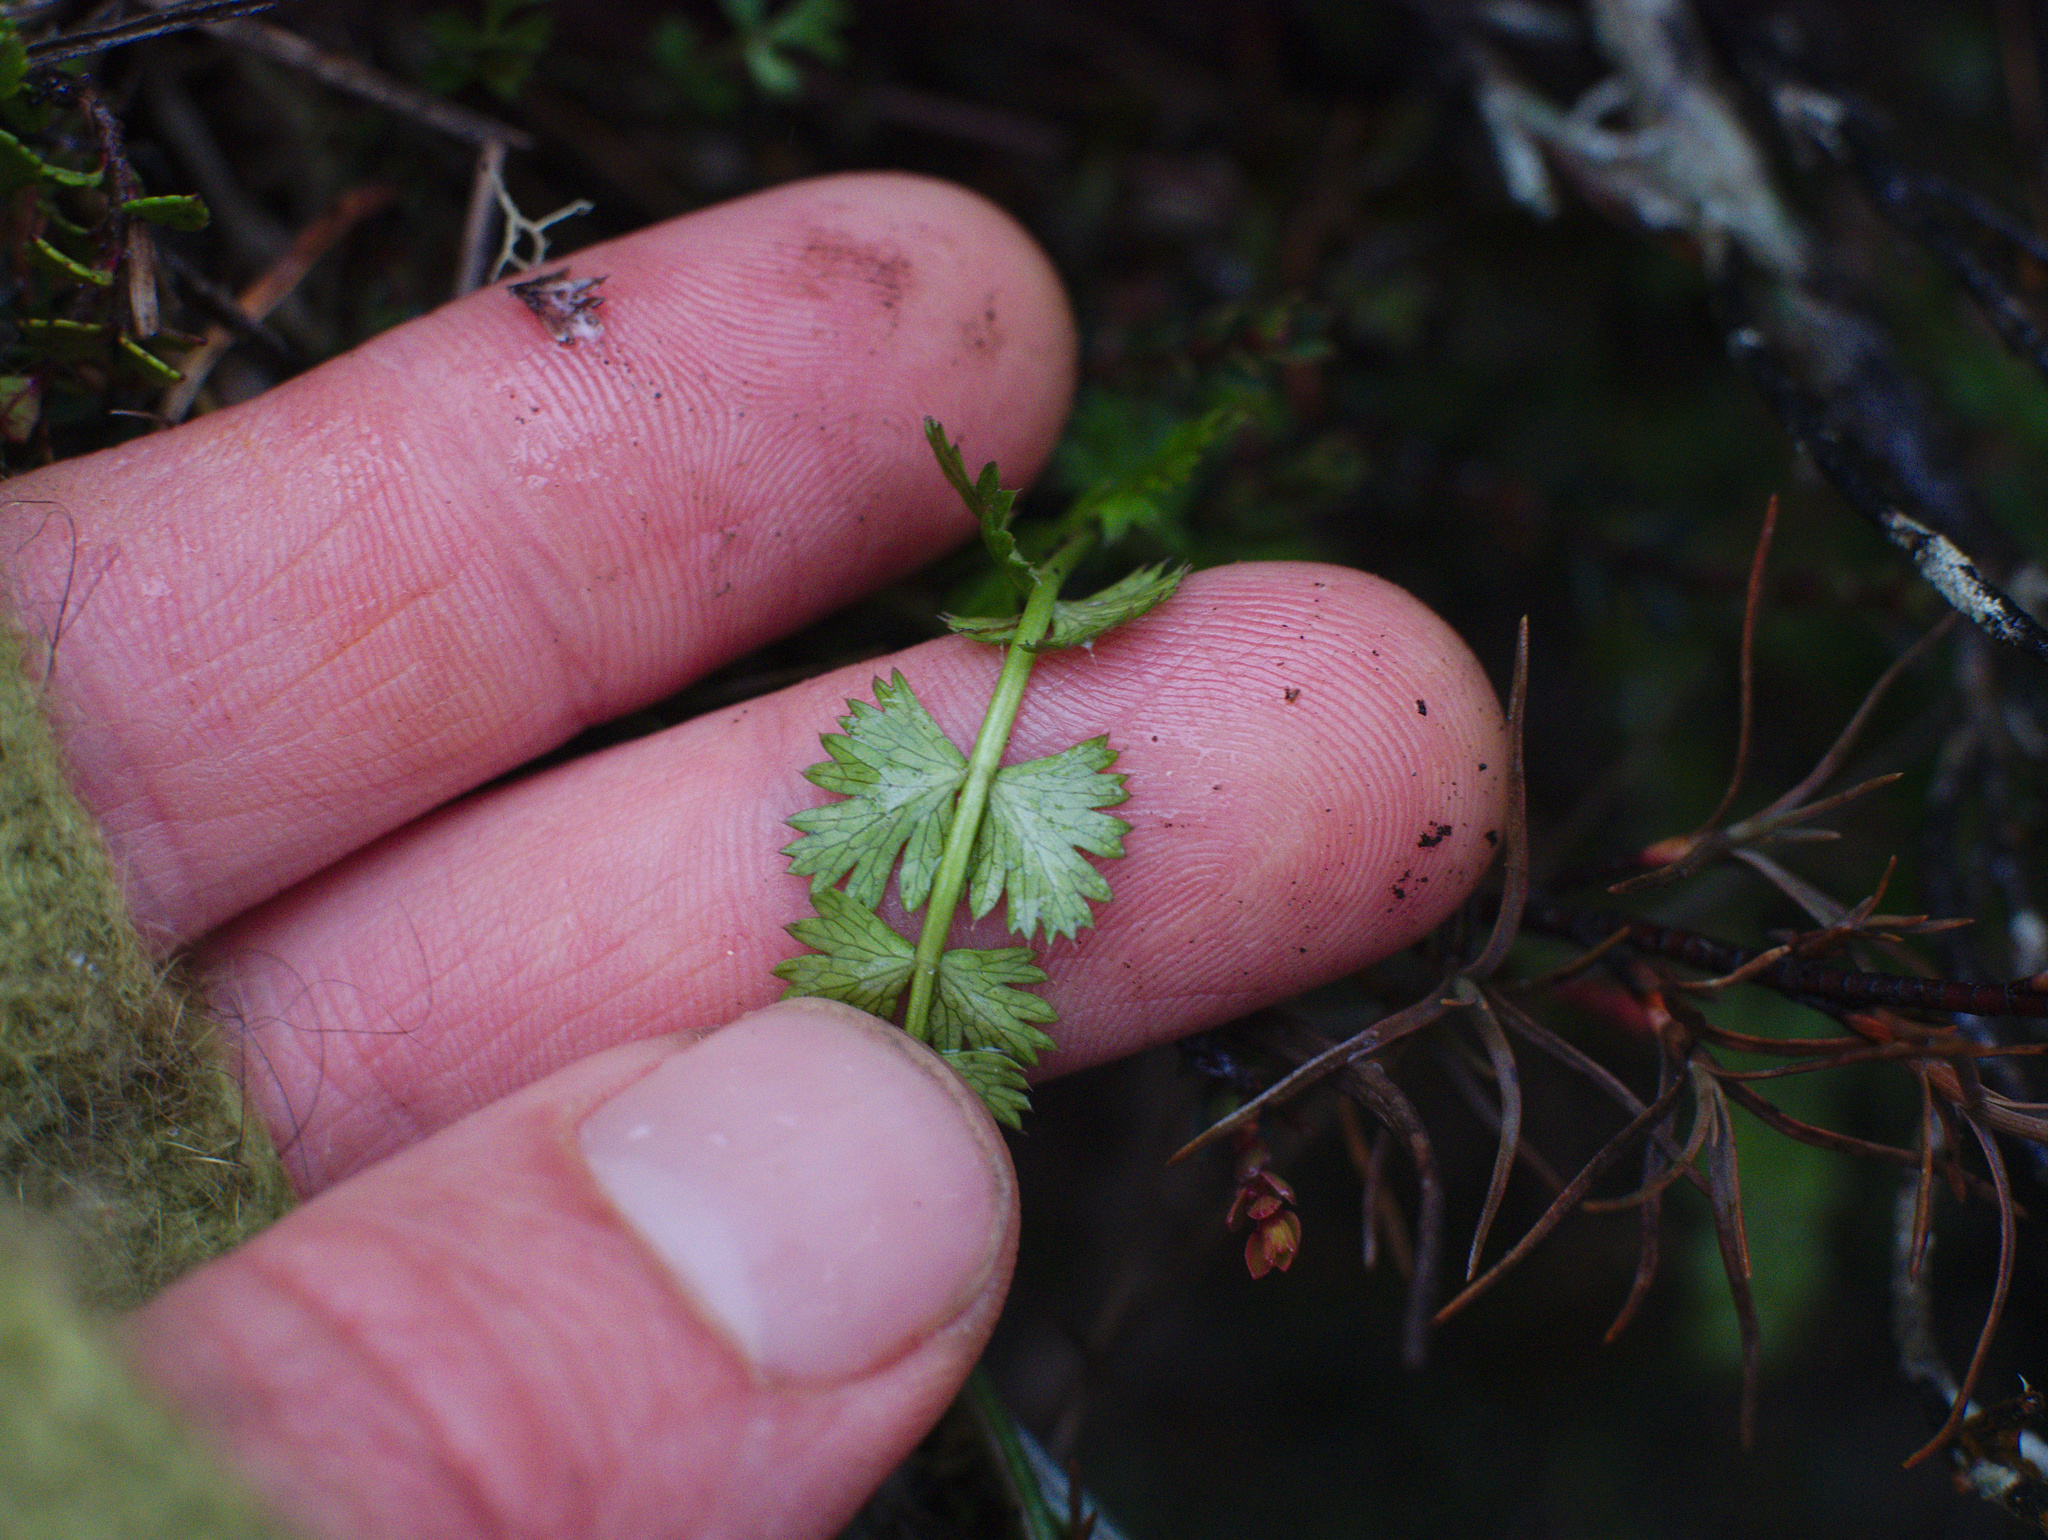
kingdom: Plantae
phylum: Tracheophyta
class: Magnoliopsida
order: Apiales
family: Apiaceae
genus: Anisotome
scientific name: Anisotome aromatica
